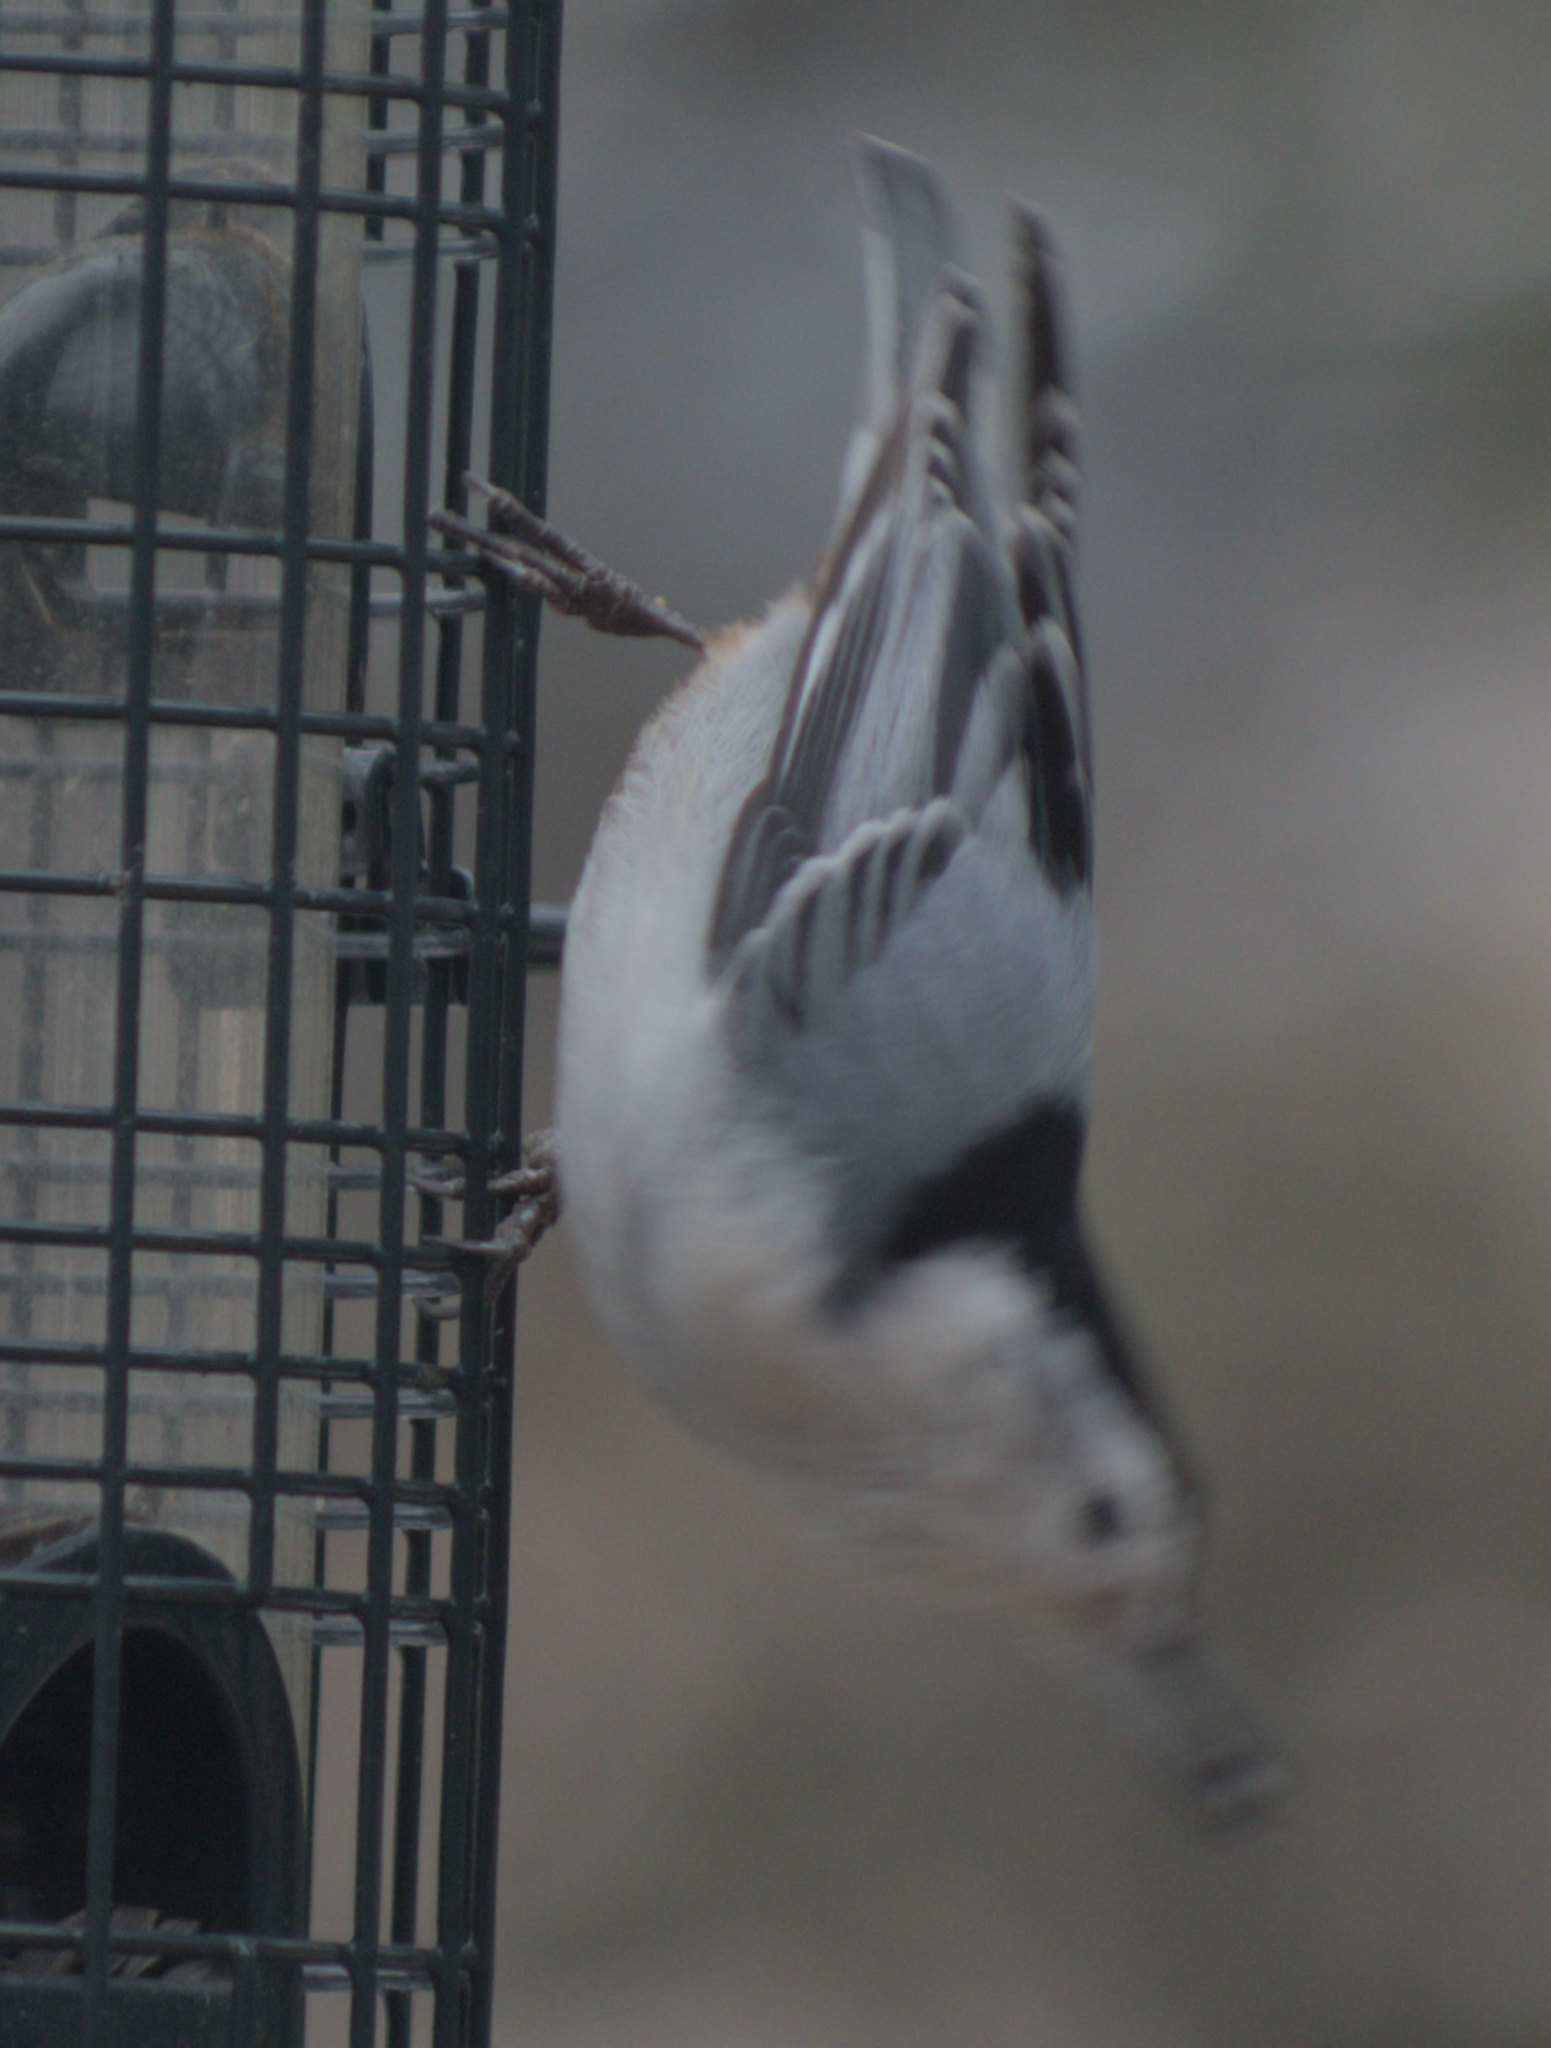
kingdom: Animalia
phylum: Chordata
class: Aves
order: Passeriformes
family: Sittidae
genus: Sitta
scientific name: Sitta carolinensis
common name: White-breasted nuthatch
